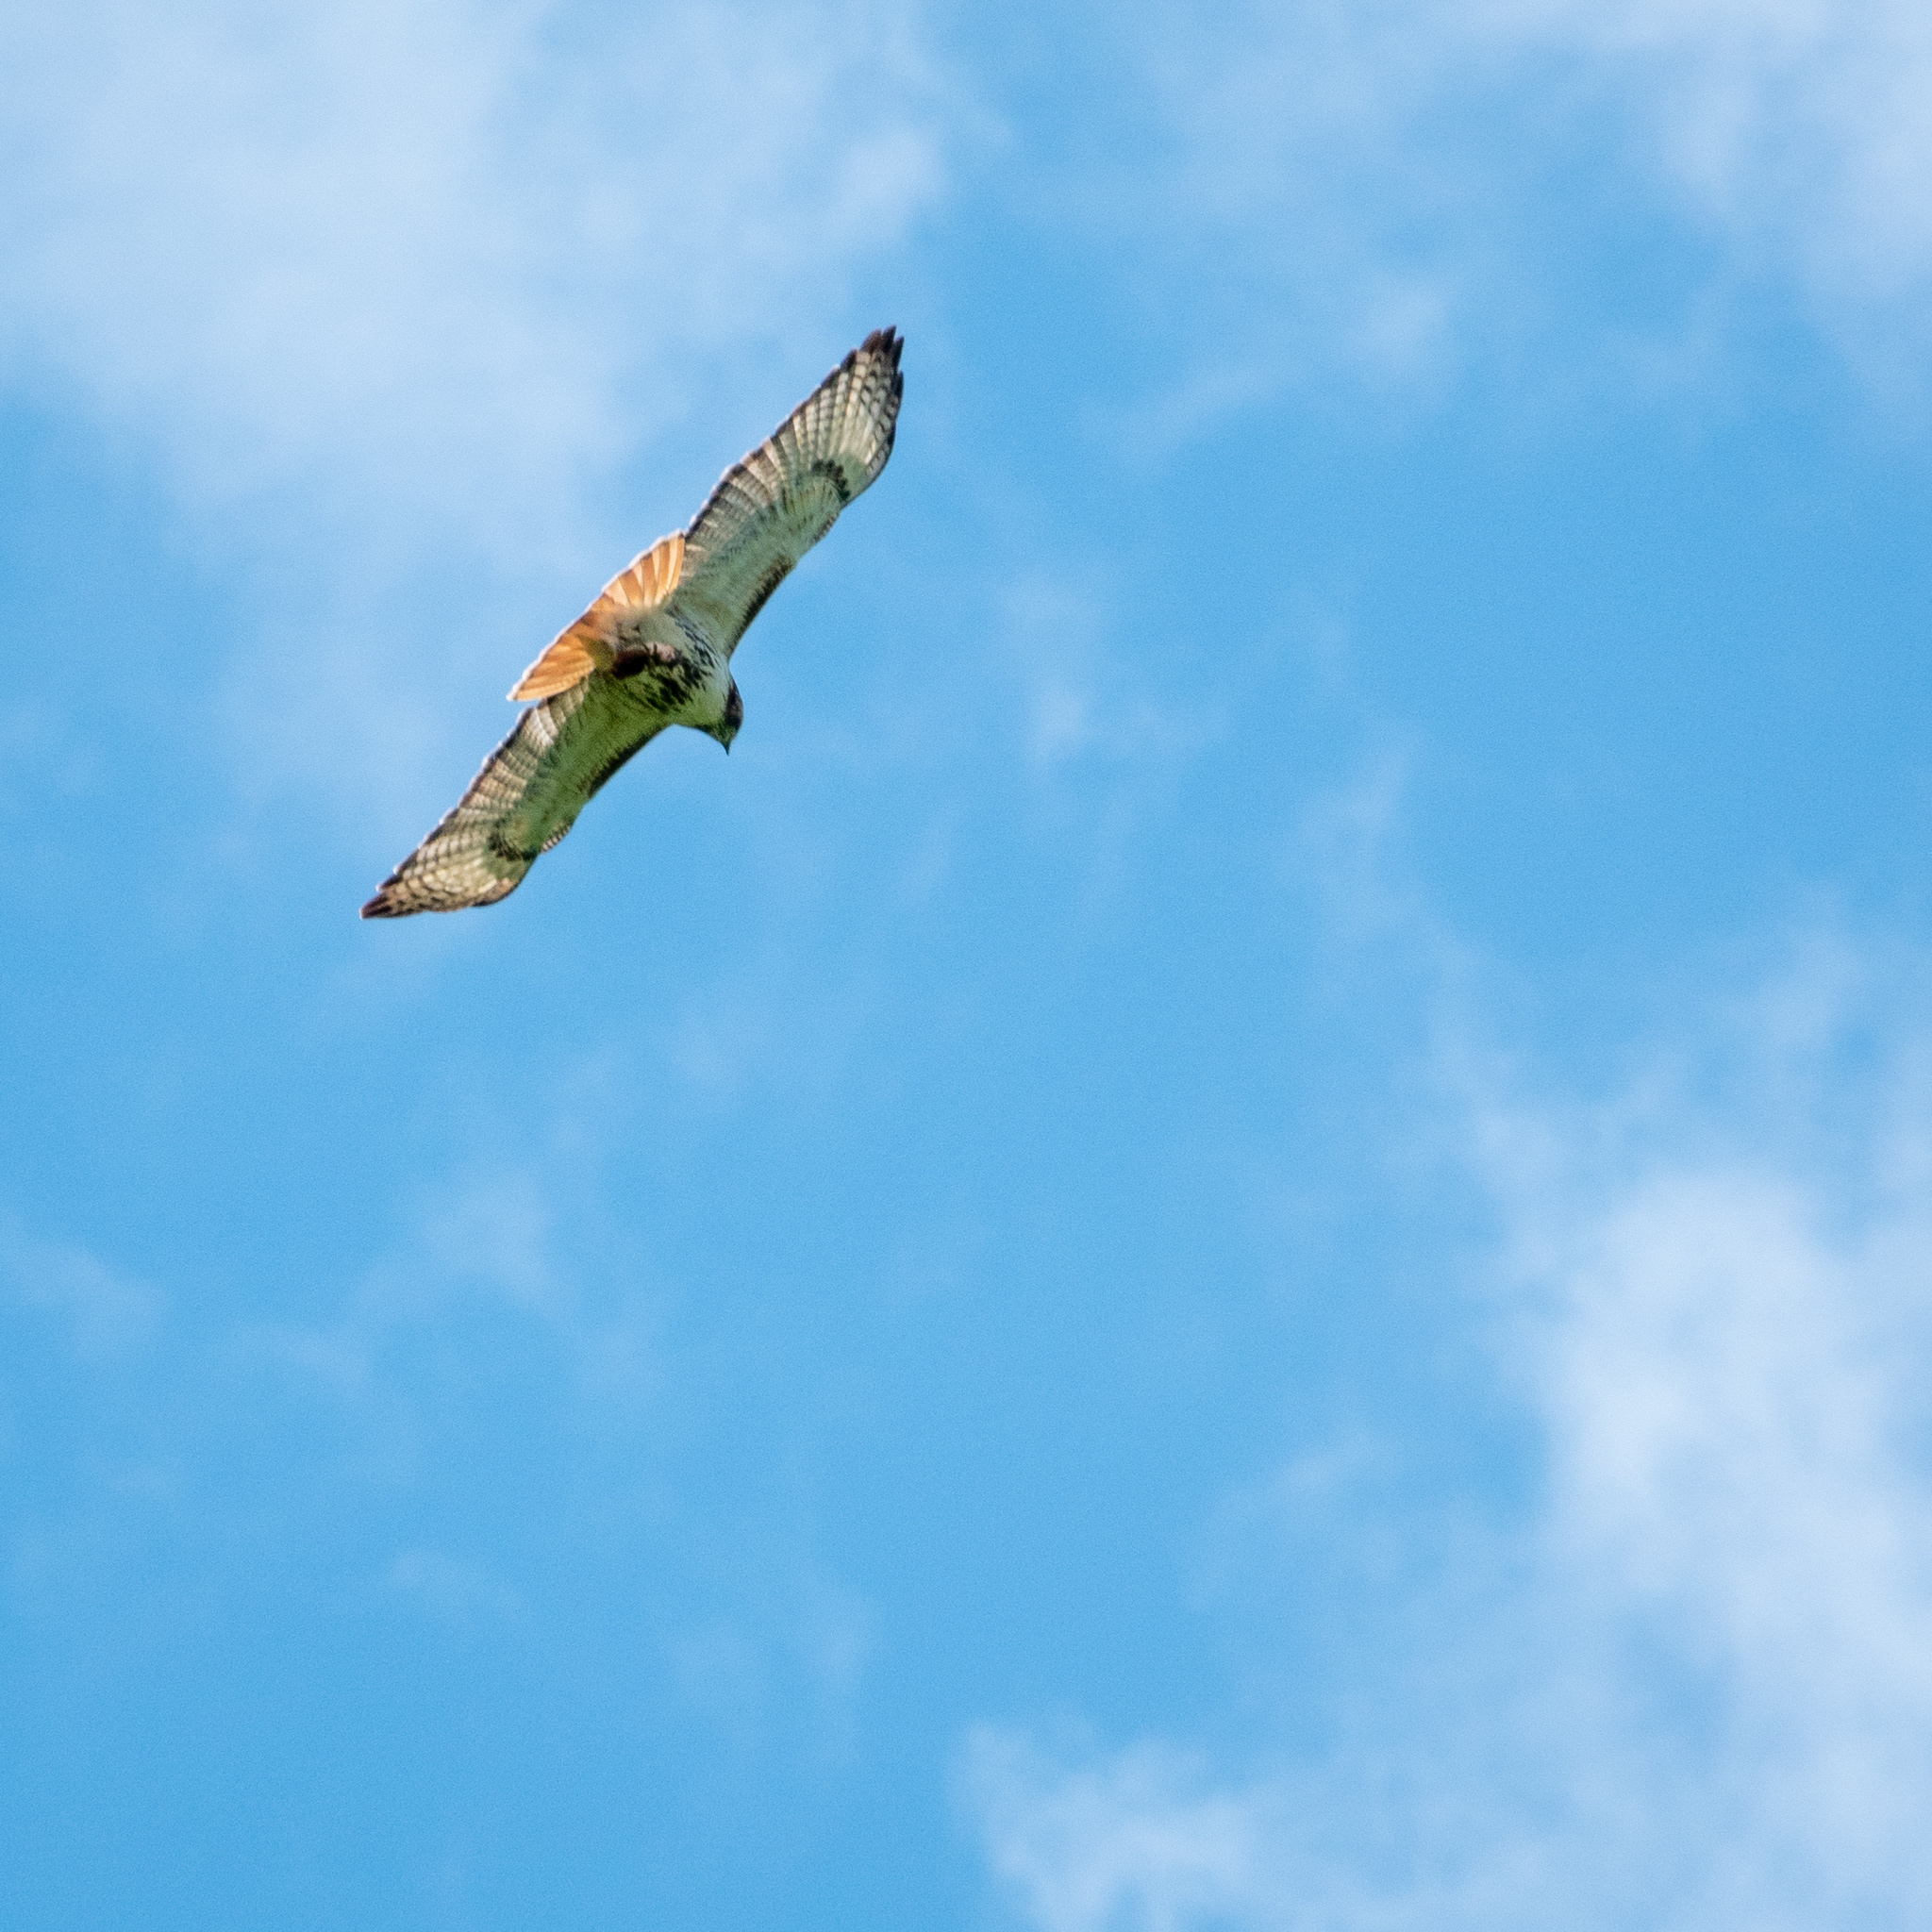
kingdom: Animalia
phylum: Chordata
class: Aves
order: Accipitriformes
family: Accipitridae
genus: Buteo
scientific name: Buteo jamaicensis
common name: Red-tailed hawk
